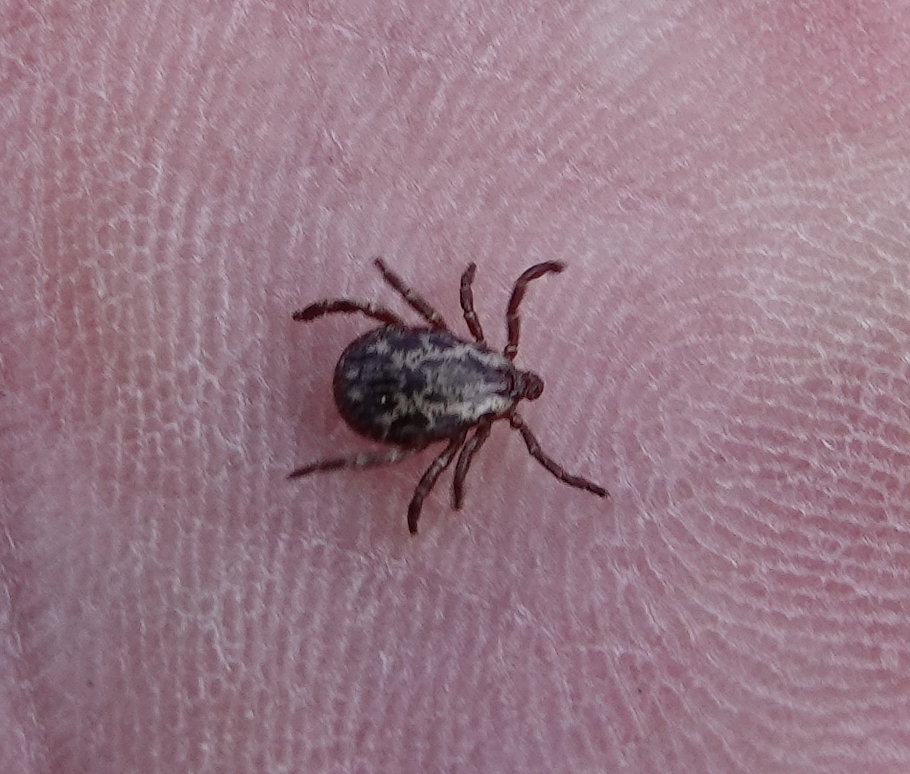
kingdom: Animalia
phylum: Arthropoda
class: Arachnida
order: Ixodida
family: Ixodidae
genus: Dermacentor
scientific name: Dermacentor variabilis
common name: American dog tick
